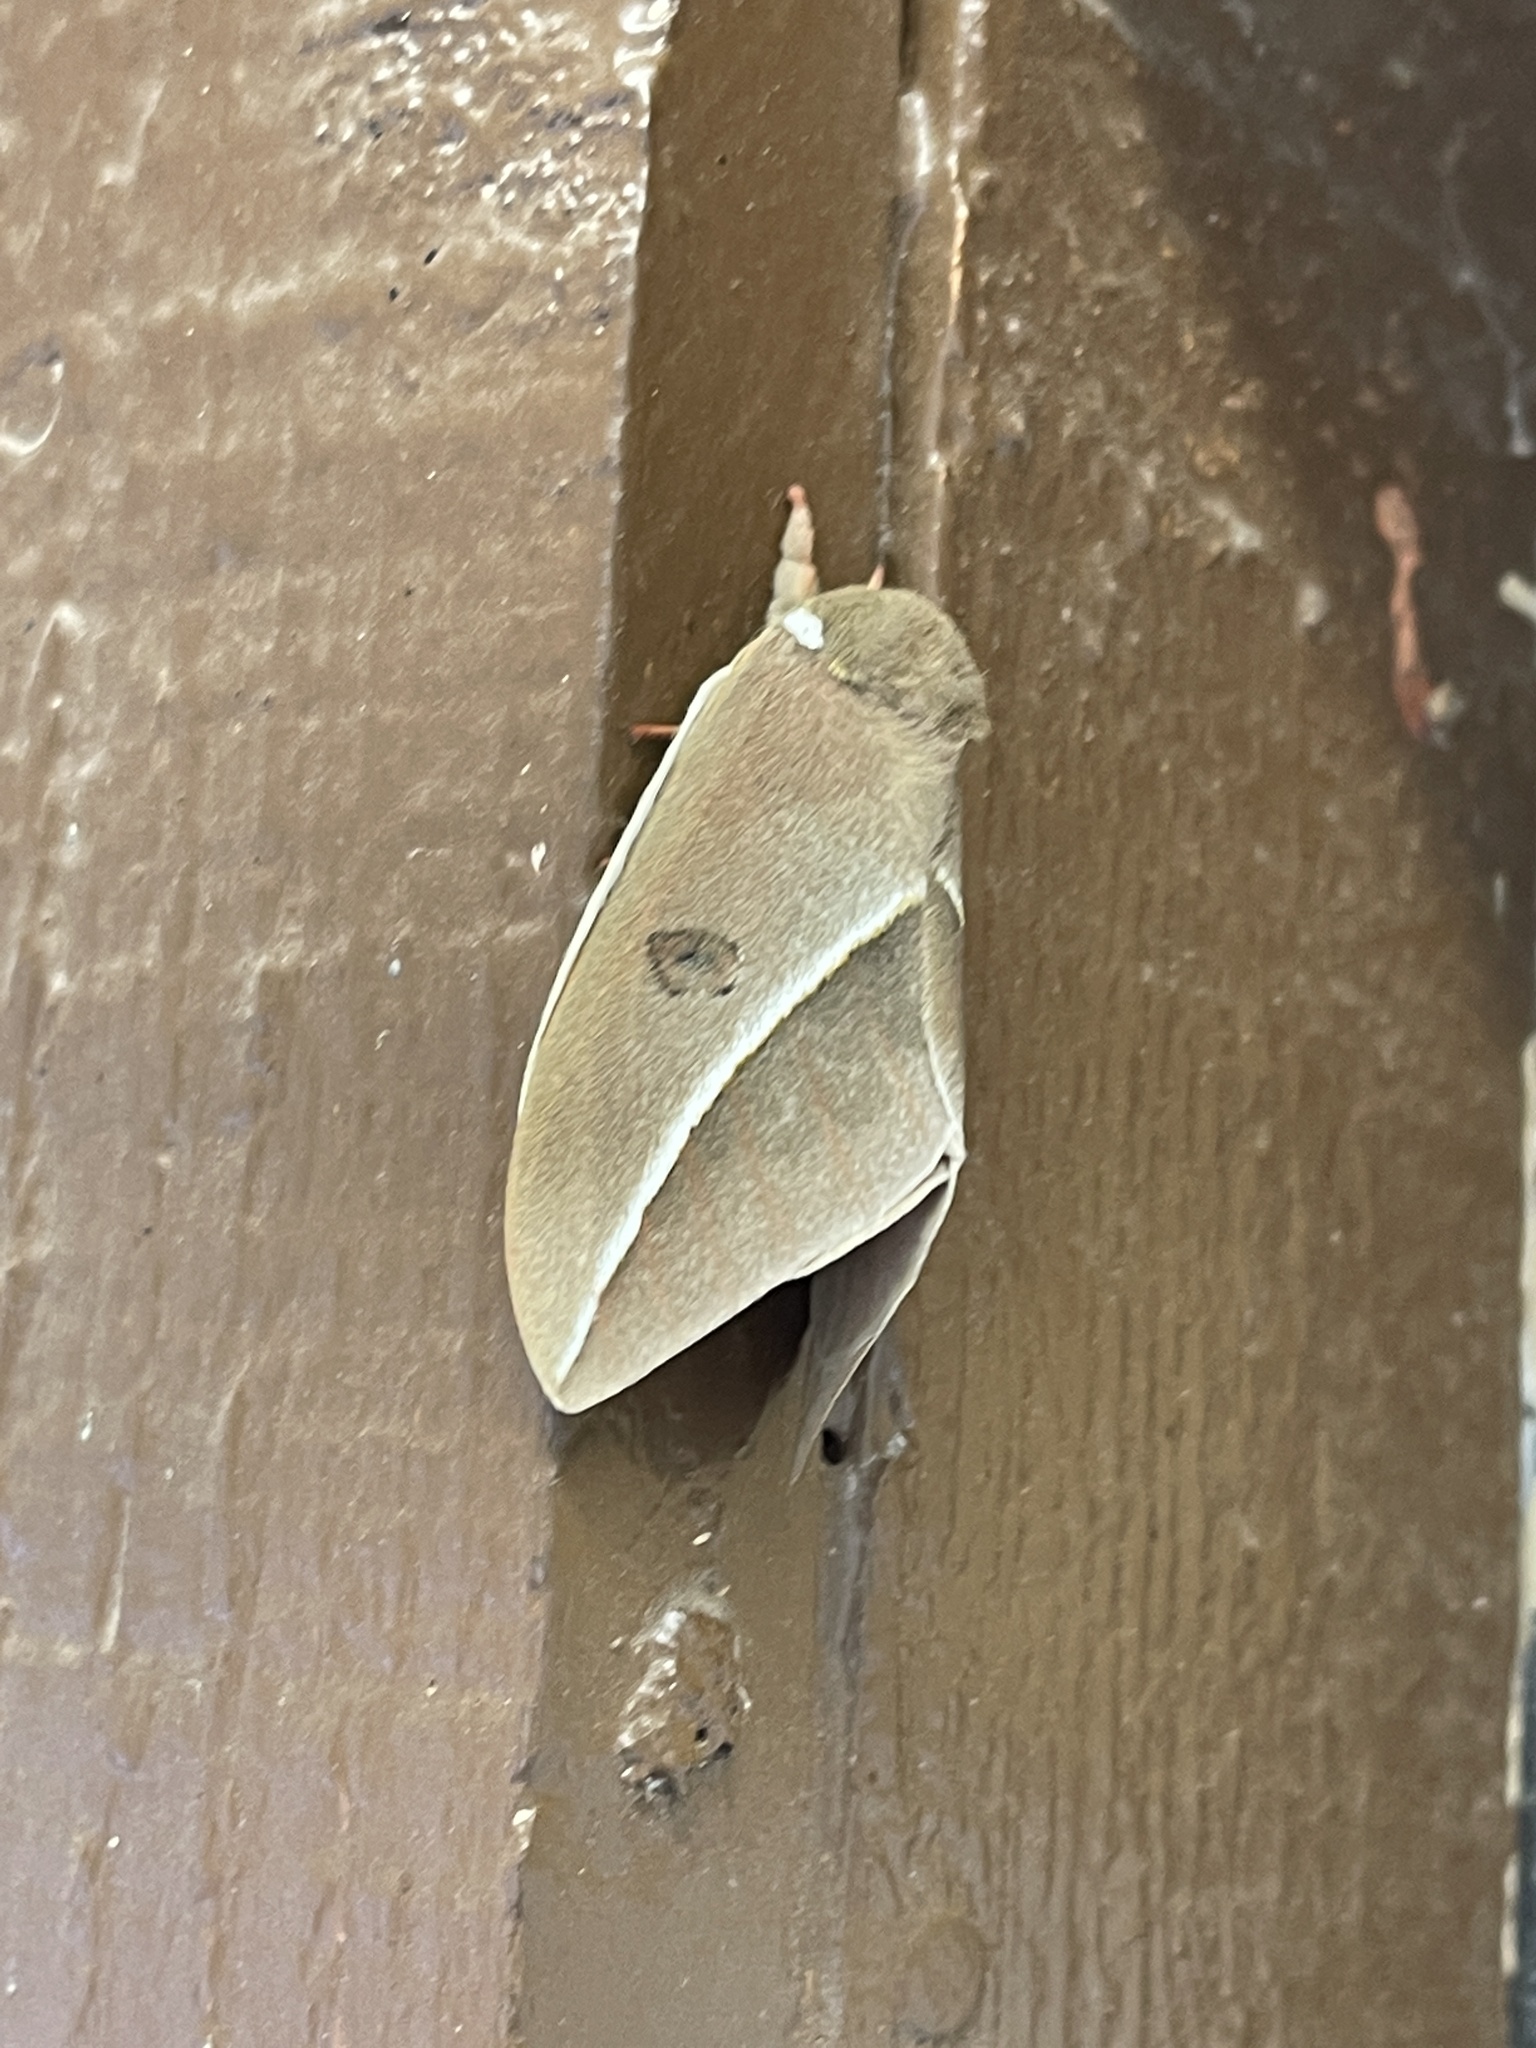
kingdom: Animalia
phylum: Arthropoda
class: Insecta
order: Lepidoptera
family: Saturniidae
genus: Automeris
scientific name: Automeris zephyria
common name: Zephyr eyed silkmoth
